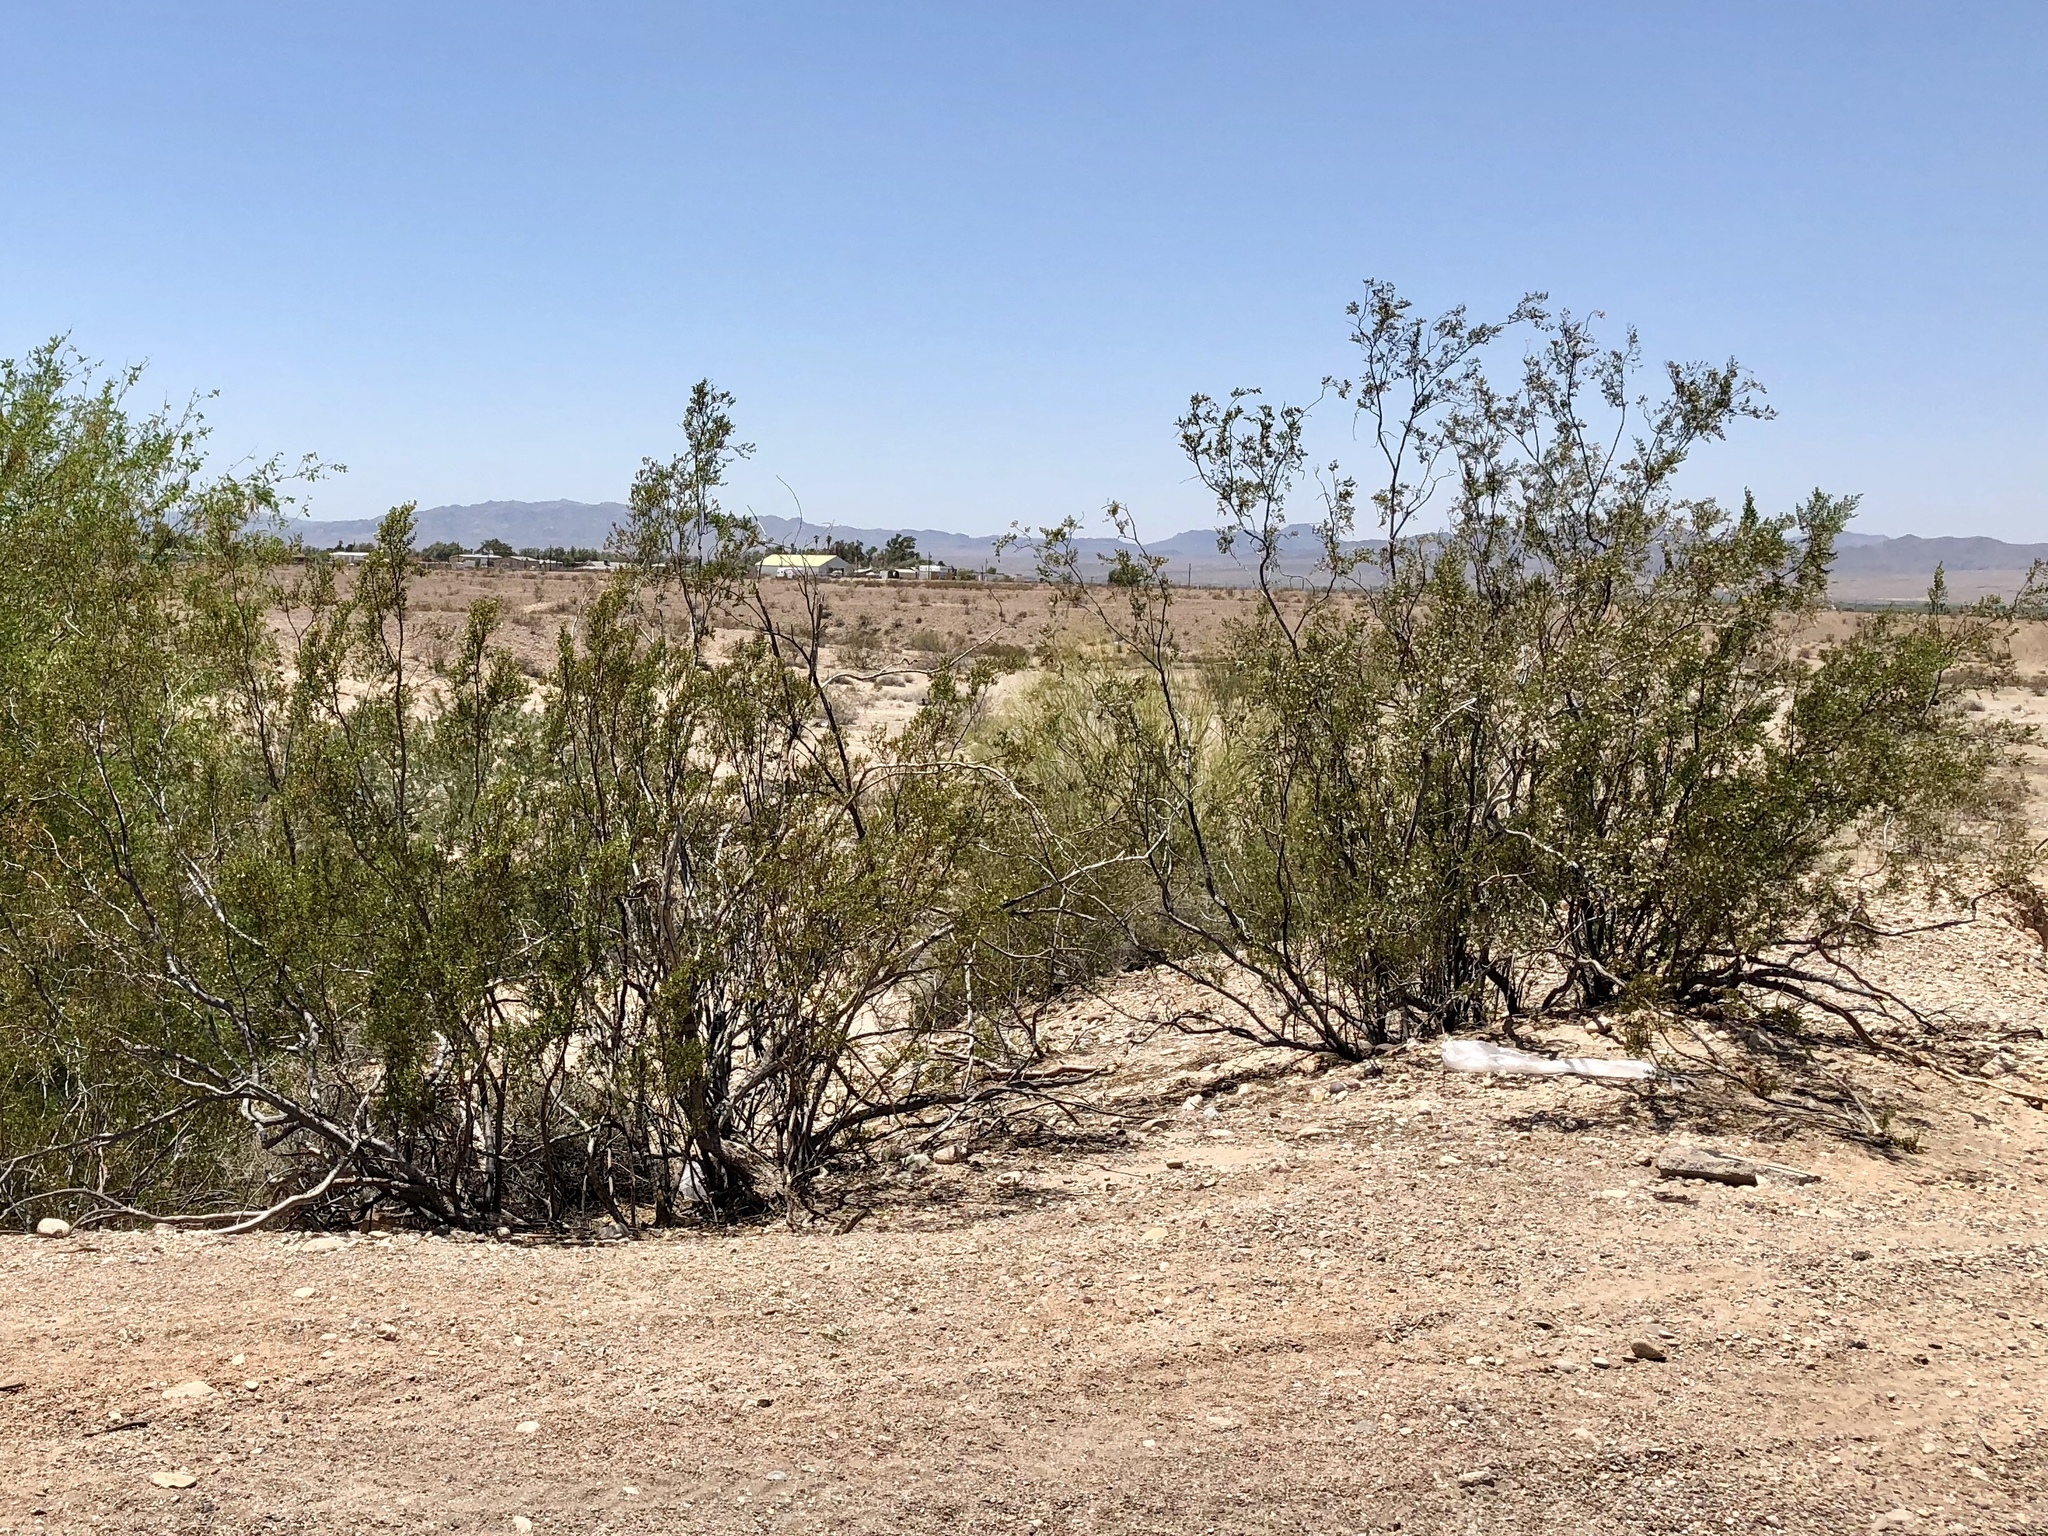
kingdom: Plantae
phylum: Tracheophyta
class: Magnoliopsida
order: Zygophyllales
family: Zygophyllaceae
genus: Larrea
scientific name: Larrea tridentata
